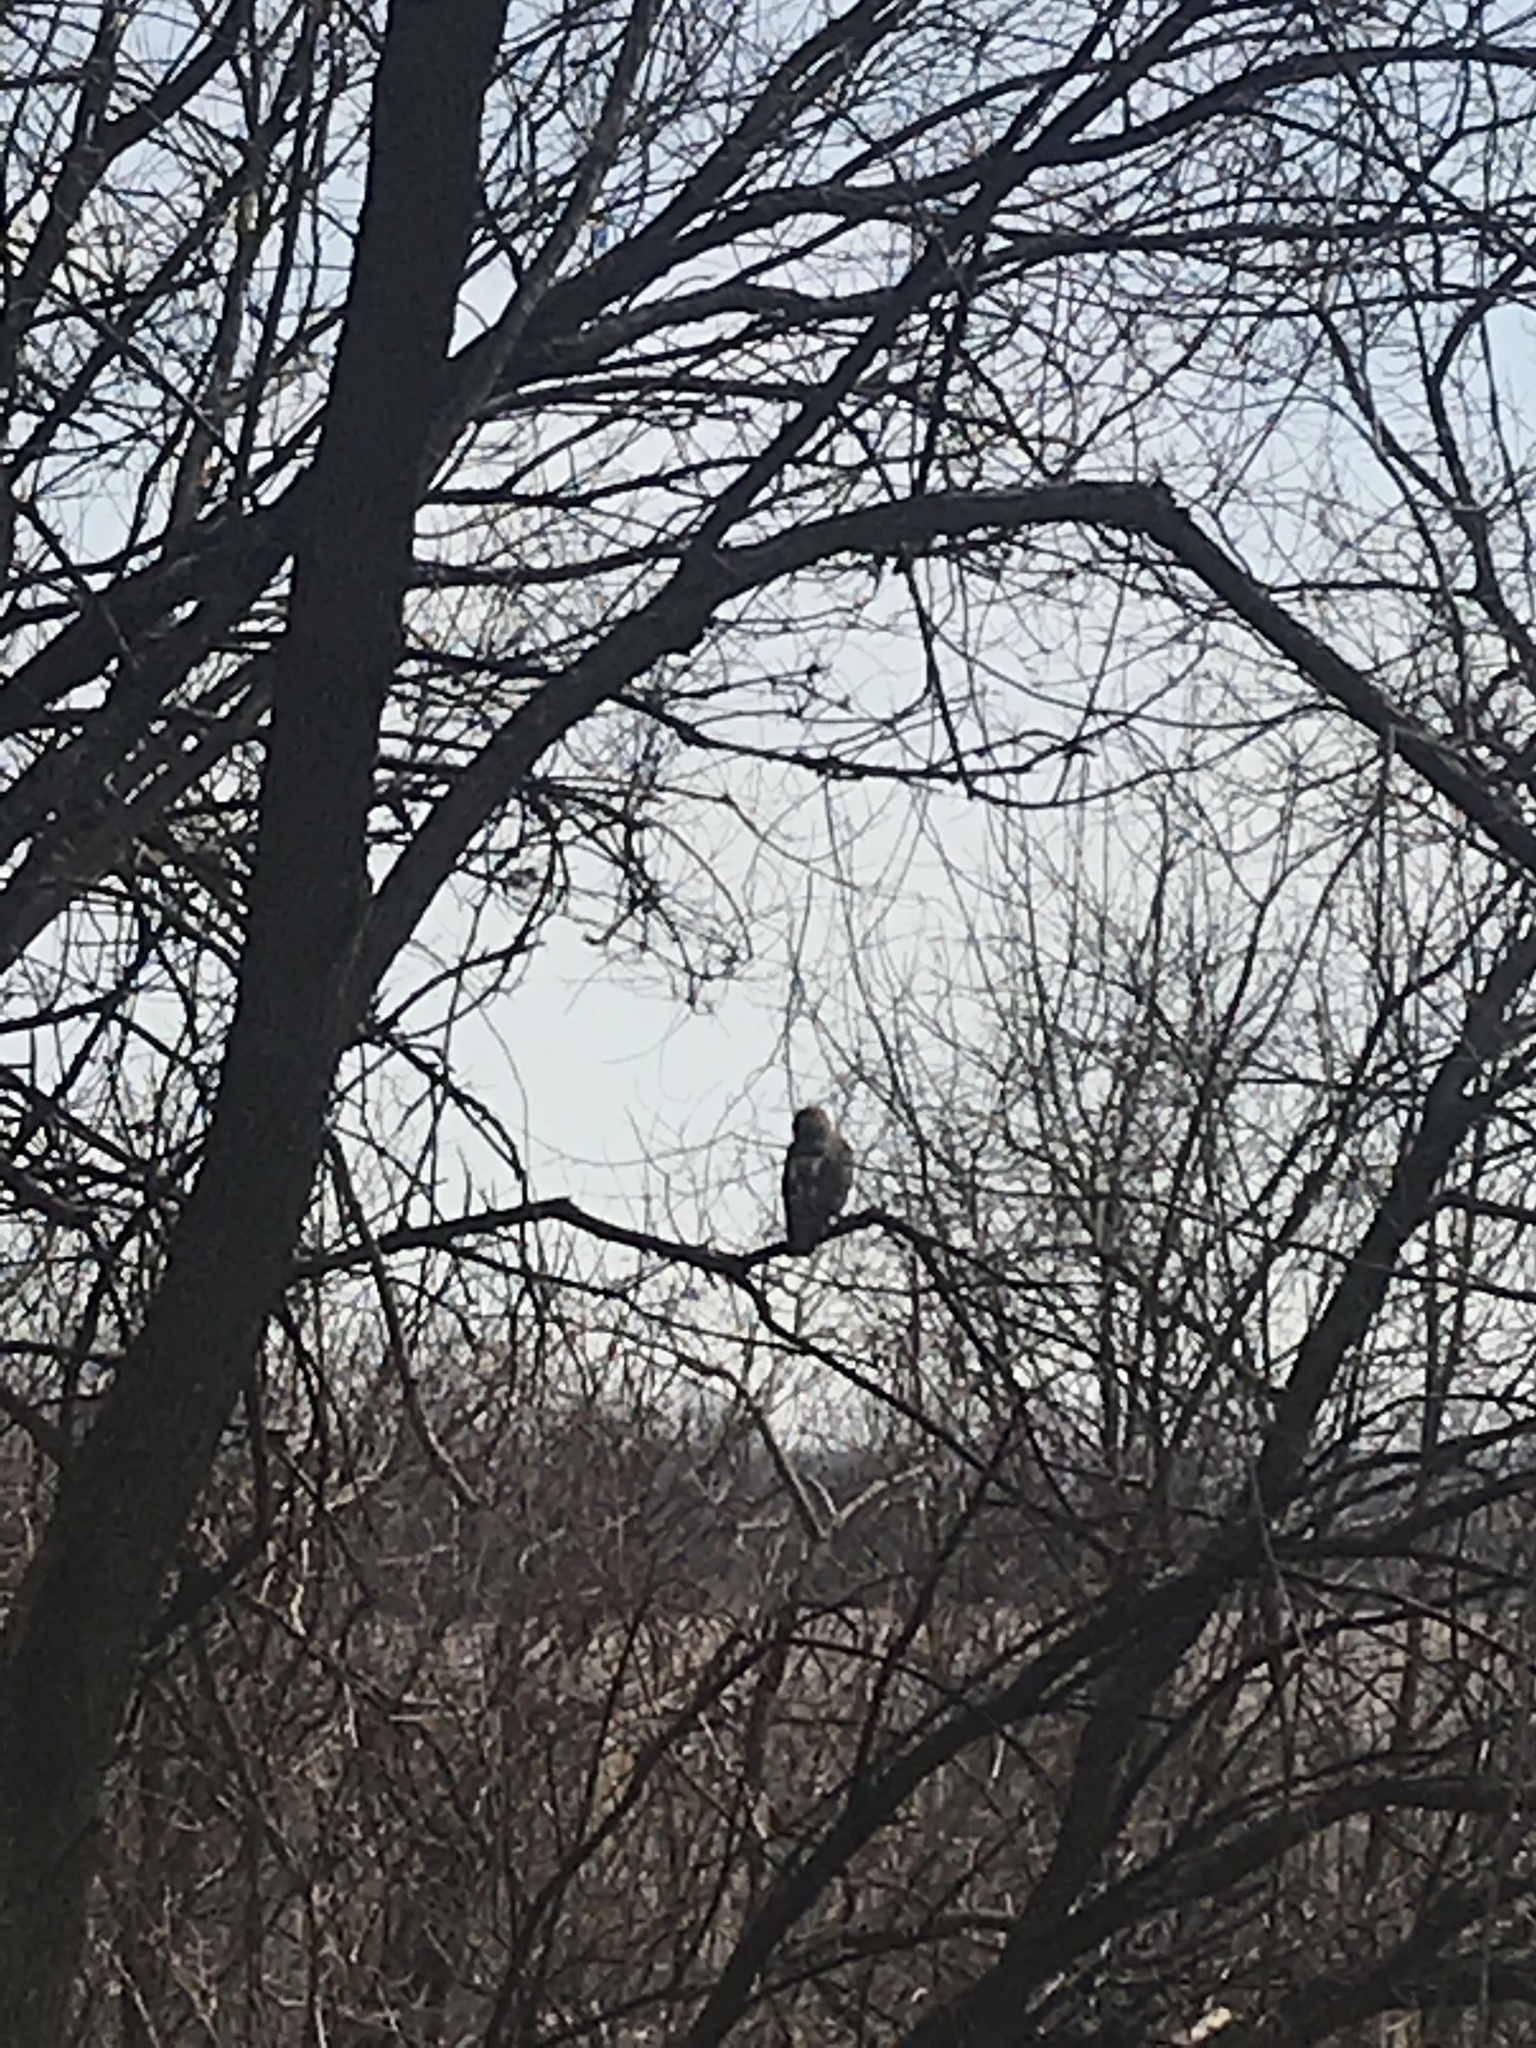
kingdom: Animalia
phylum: Chordata
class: Aves
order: Accipitriformes
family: Accipitridae
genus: Buteo
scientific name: Buteo jamaicensis
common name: Red-tailed hawk
